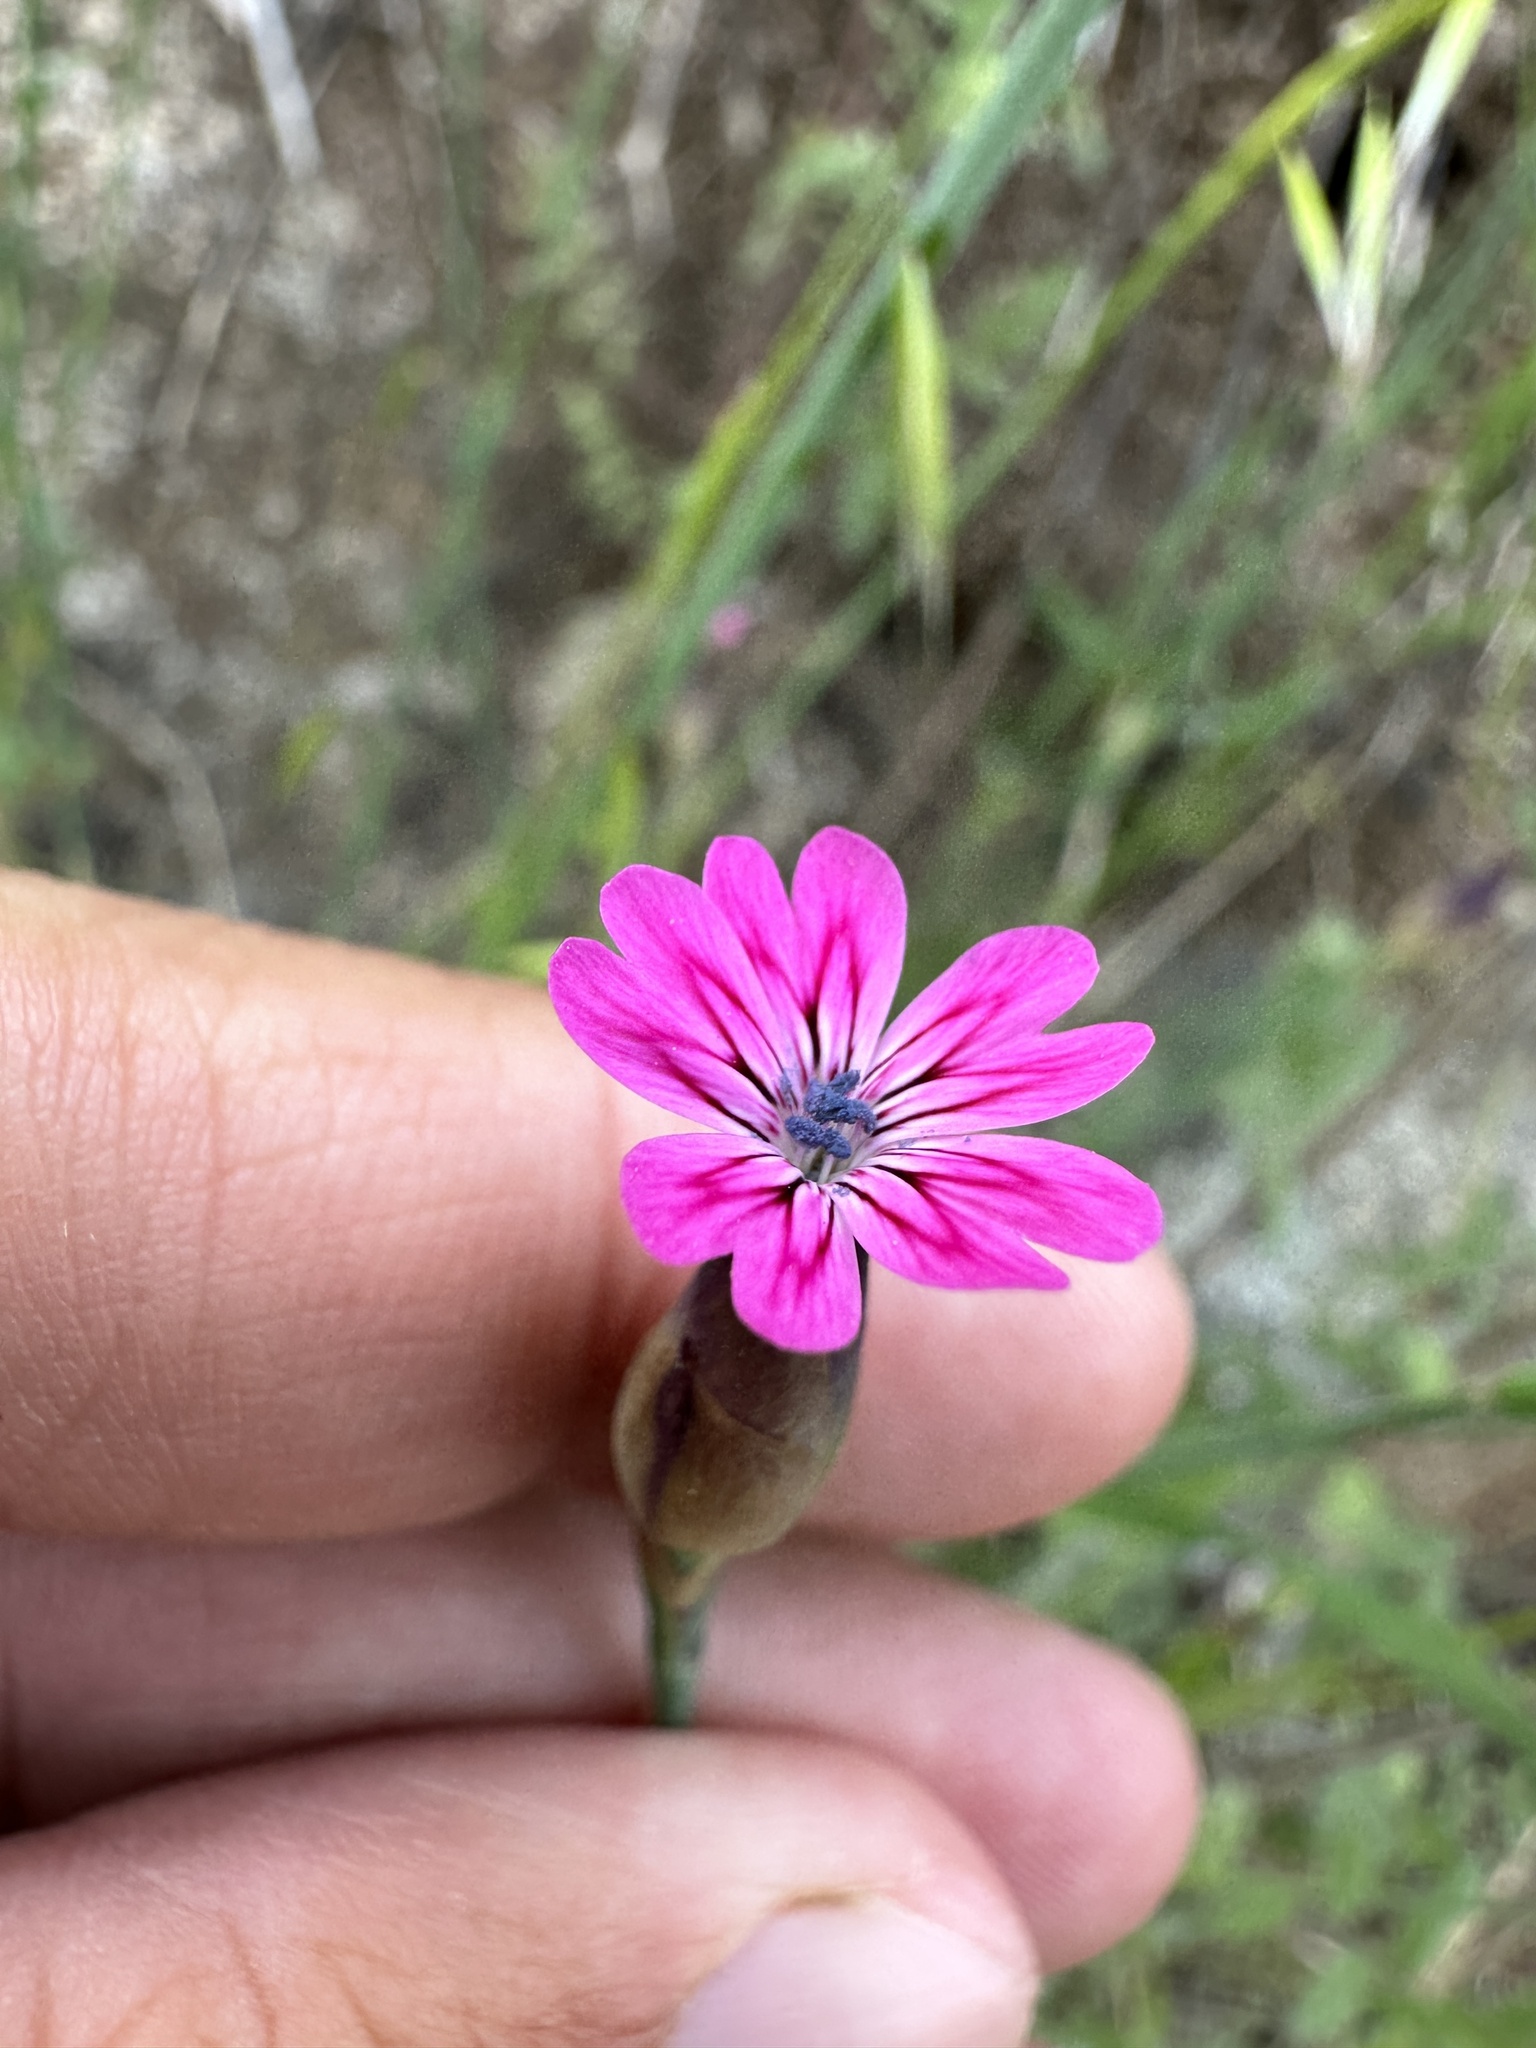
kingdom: Plantae
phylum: Tracheophyta
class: Magnoliopsida
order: Caryophyllales
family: Caryophyllaceae
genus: Petrorhagia
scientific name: Petrorhagia dubia
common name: Hairypink
